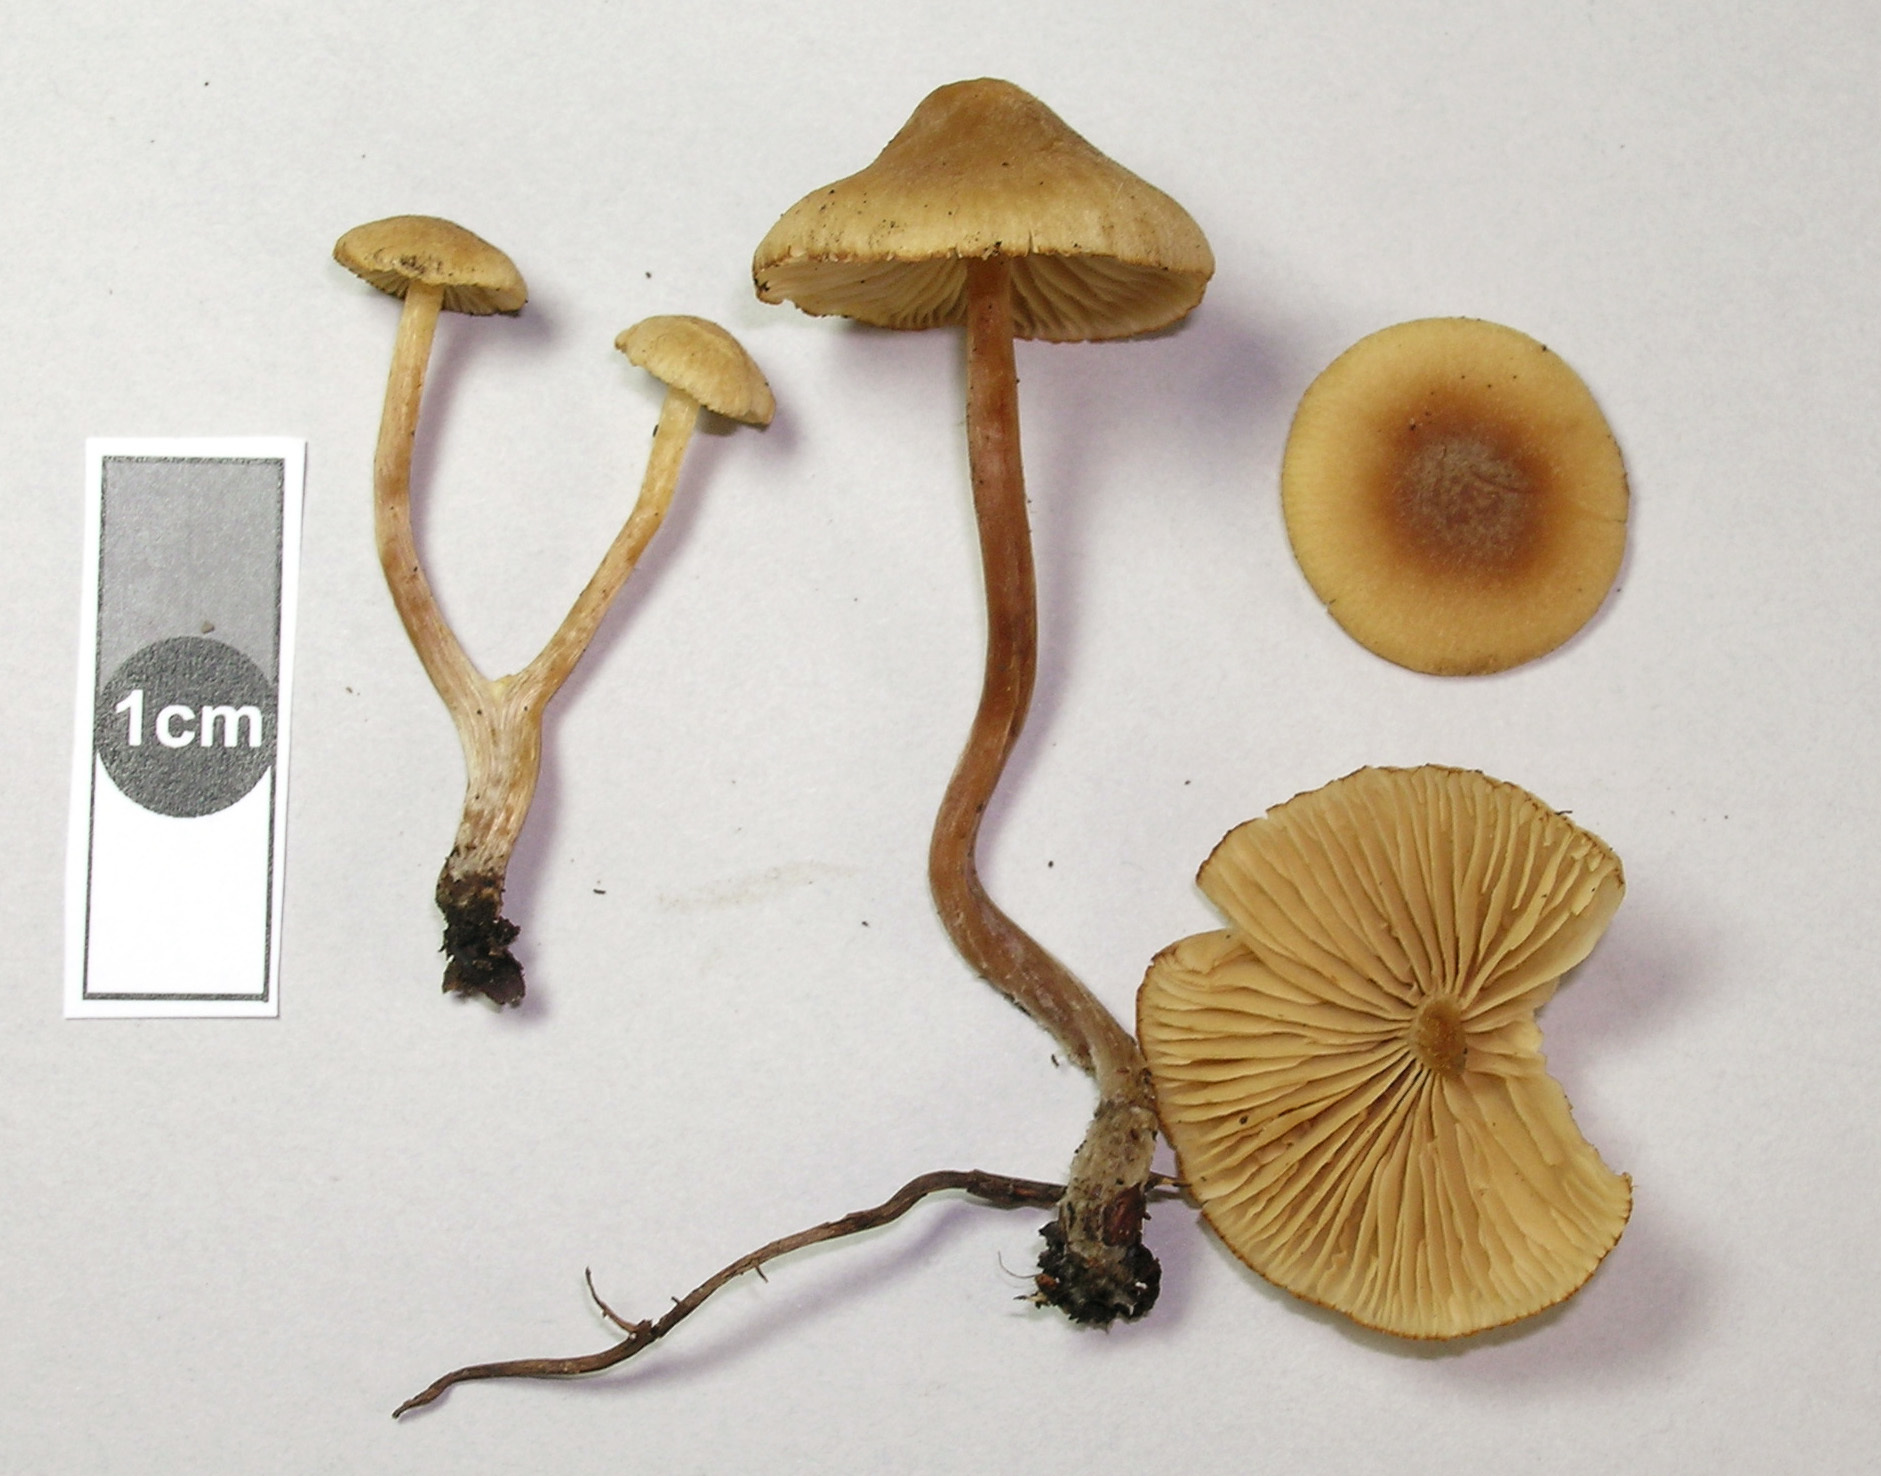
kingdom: Fungi
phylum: Basidiomycota
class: Agaricomycetes
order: Agaricales
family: Hymenogastraceae
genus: Naucoria
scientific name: Naucoria escharioides
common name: Ochre aldercap
